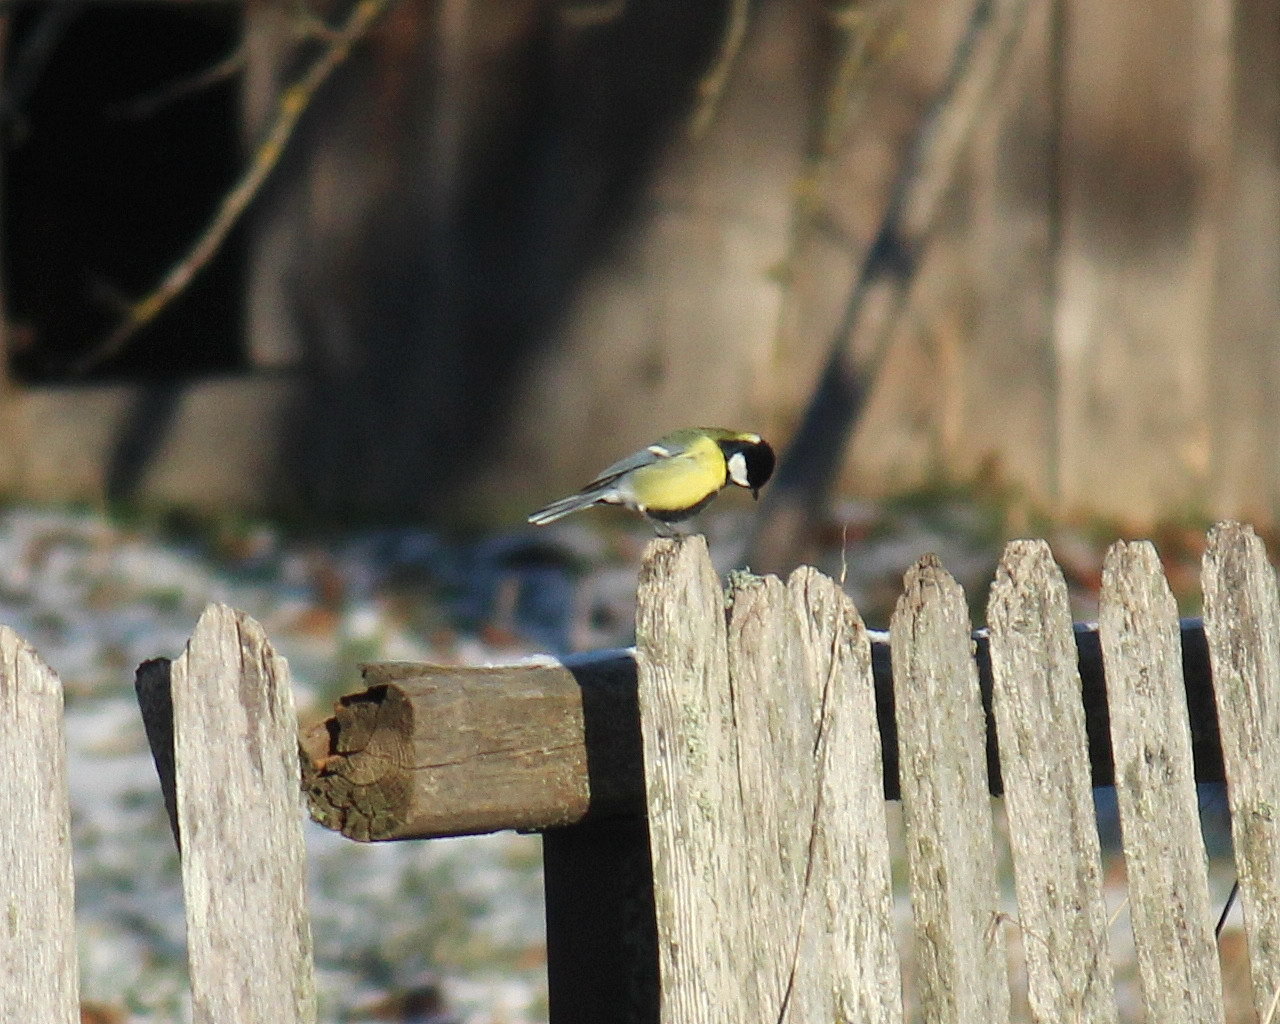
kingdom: Animalia
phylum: Chordata
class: Aves
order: Passeriformes
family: Paridae
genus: Parus
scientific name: Parus major
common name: Great tit
